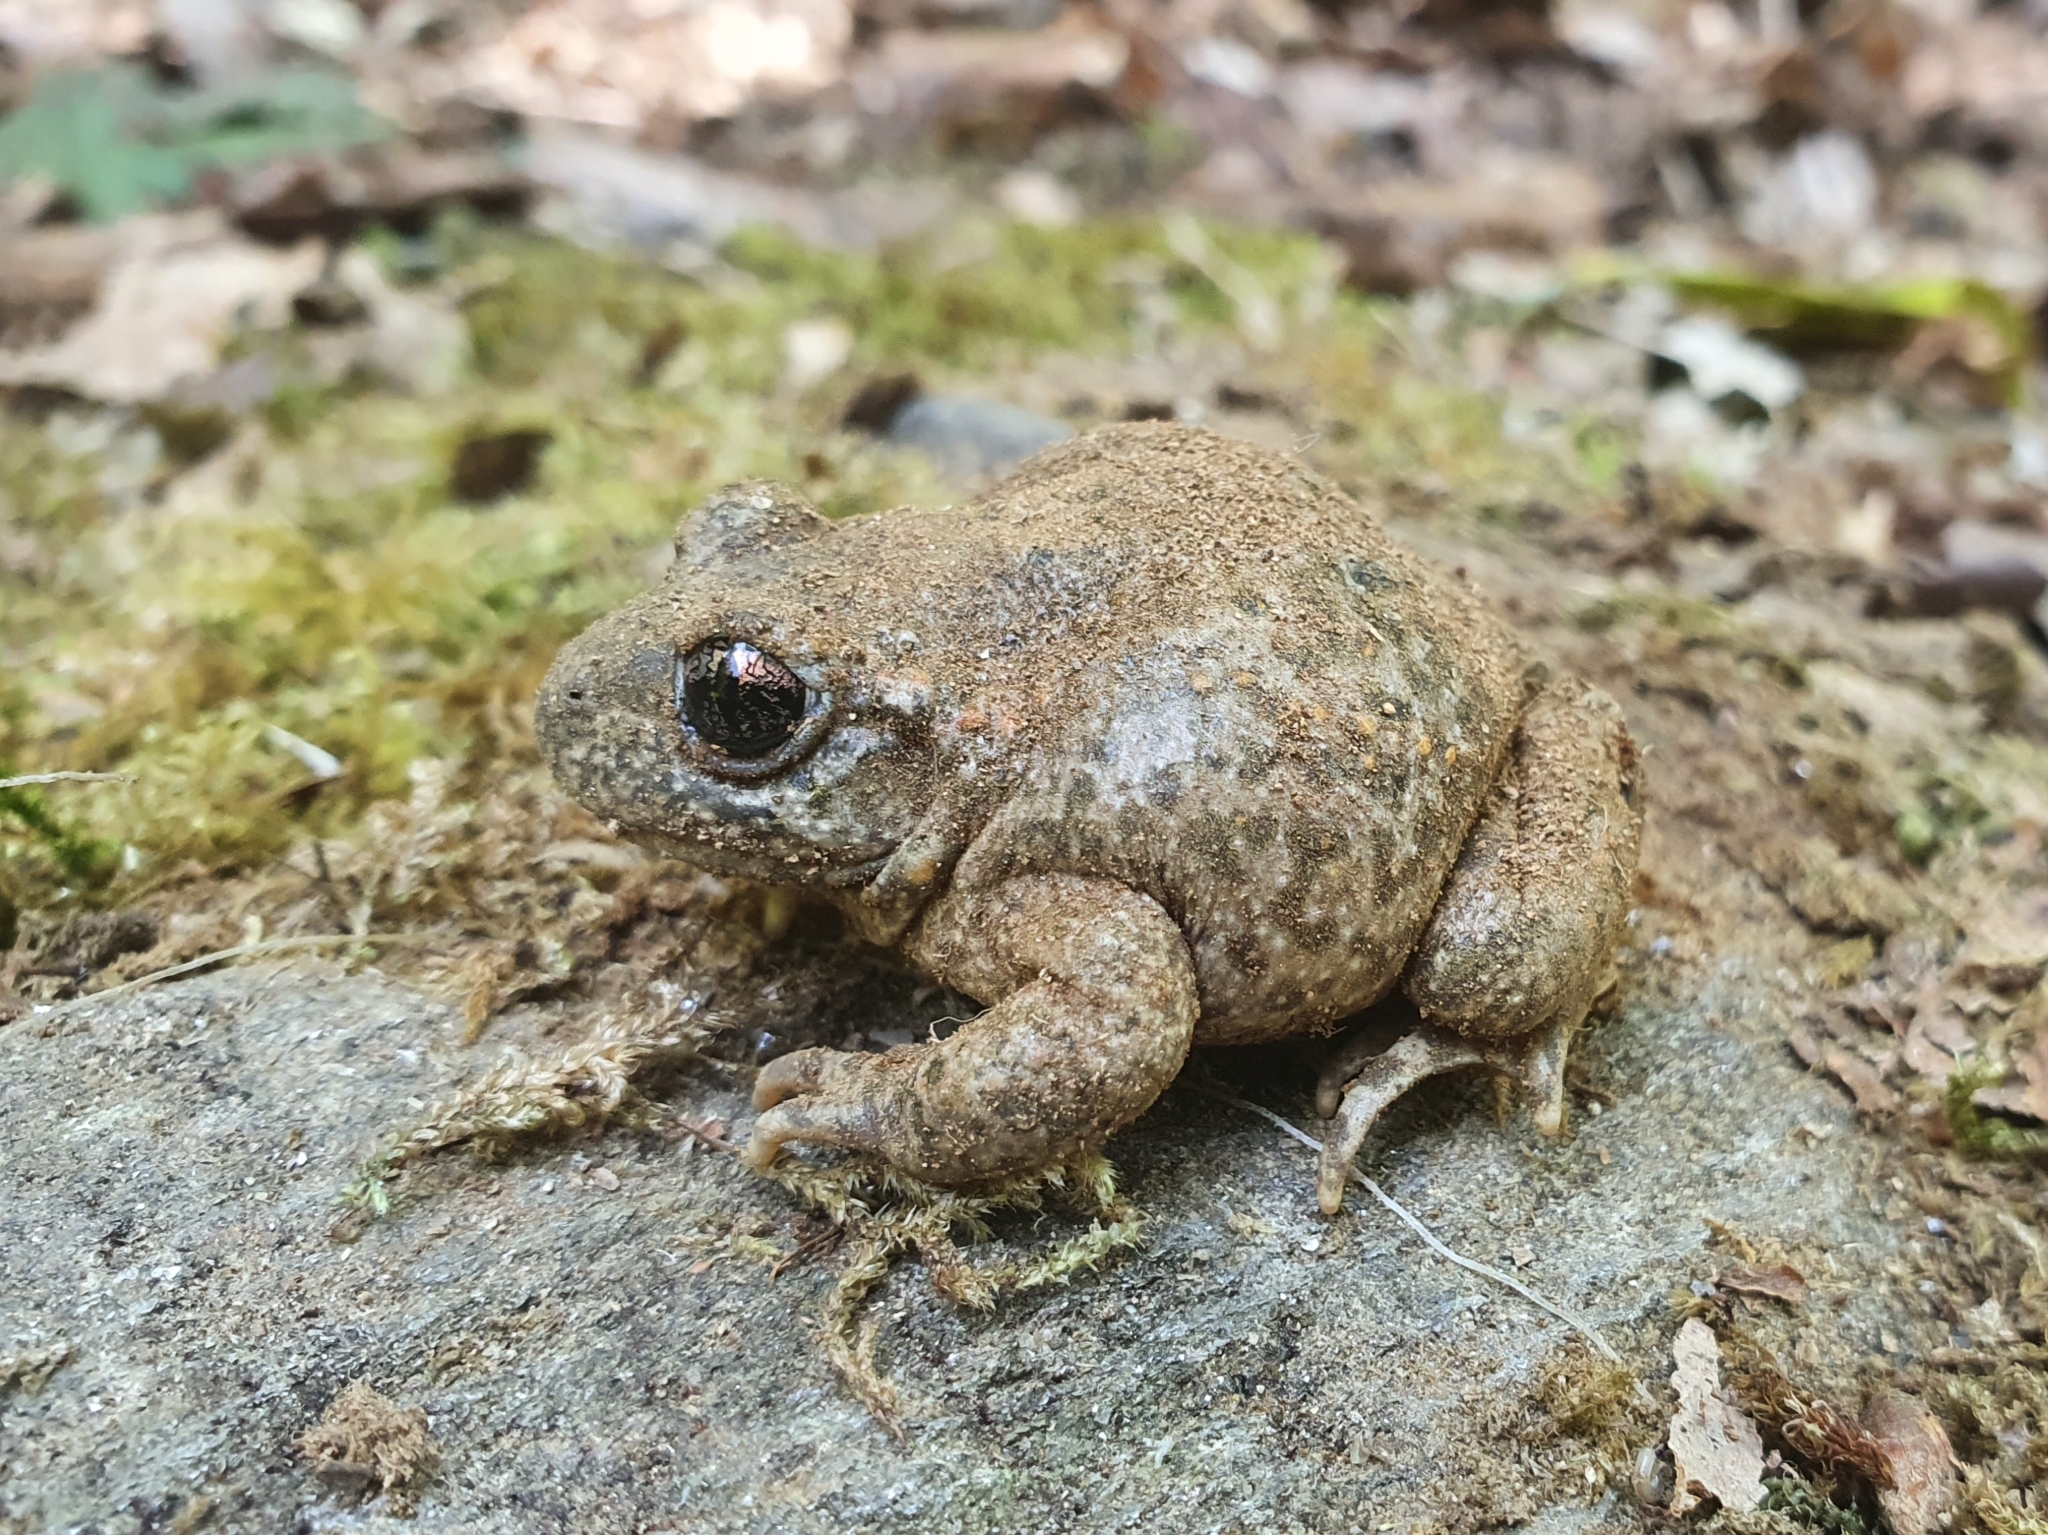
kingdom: Animalia
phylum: Chordata
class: Amphibia
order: Anura
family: Alytidae
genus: Alytes
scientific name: Alytes obstetricans
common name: Midwife toad
